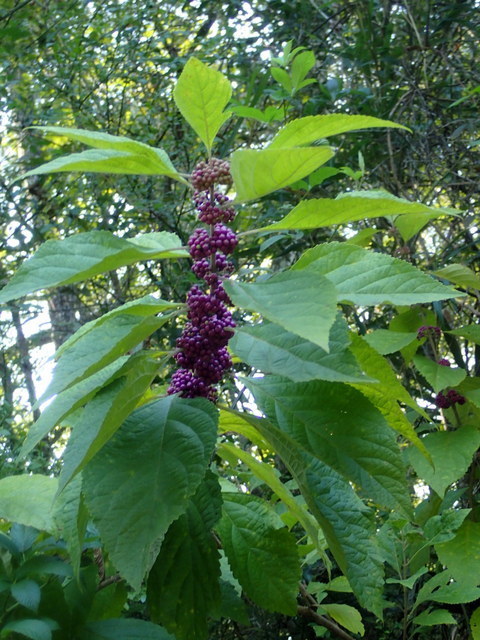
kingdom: Plantae
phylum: Tracheophyta
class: Magnoliopsida
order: Lamiales
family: Lamiaceae
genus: Callicarpa
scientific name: Callicarpa americana
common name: American beautyberry
